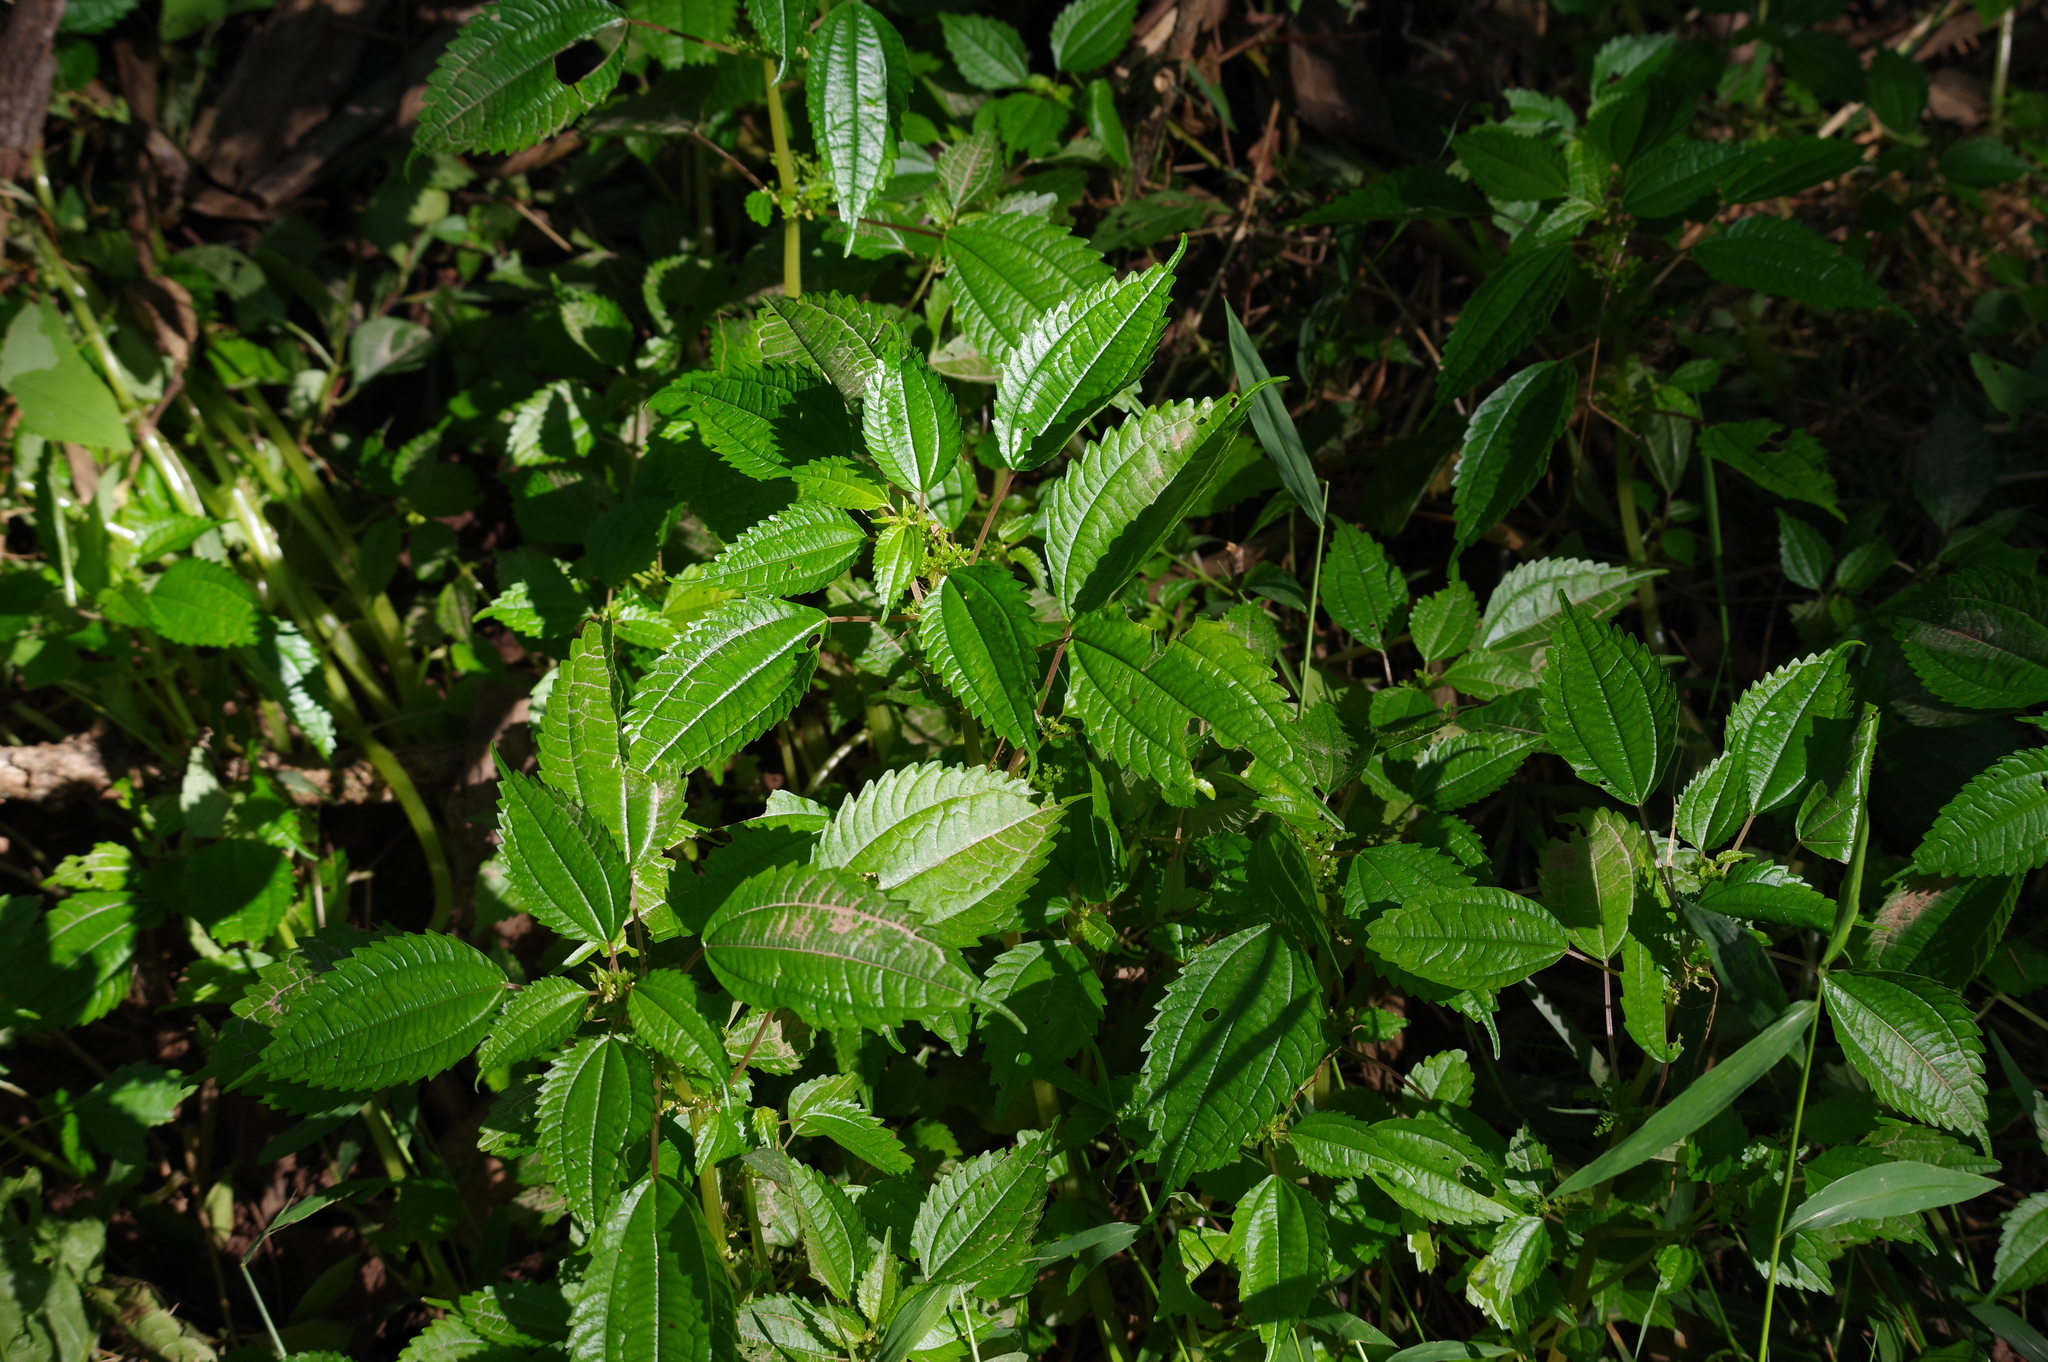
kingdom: Plantae
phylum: Tracheophyta
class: Magnoliopsida
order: Rosales
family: Urticaceae
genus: Pilea
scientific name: Pilea pumila
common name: Clearweed
